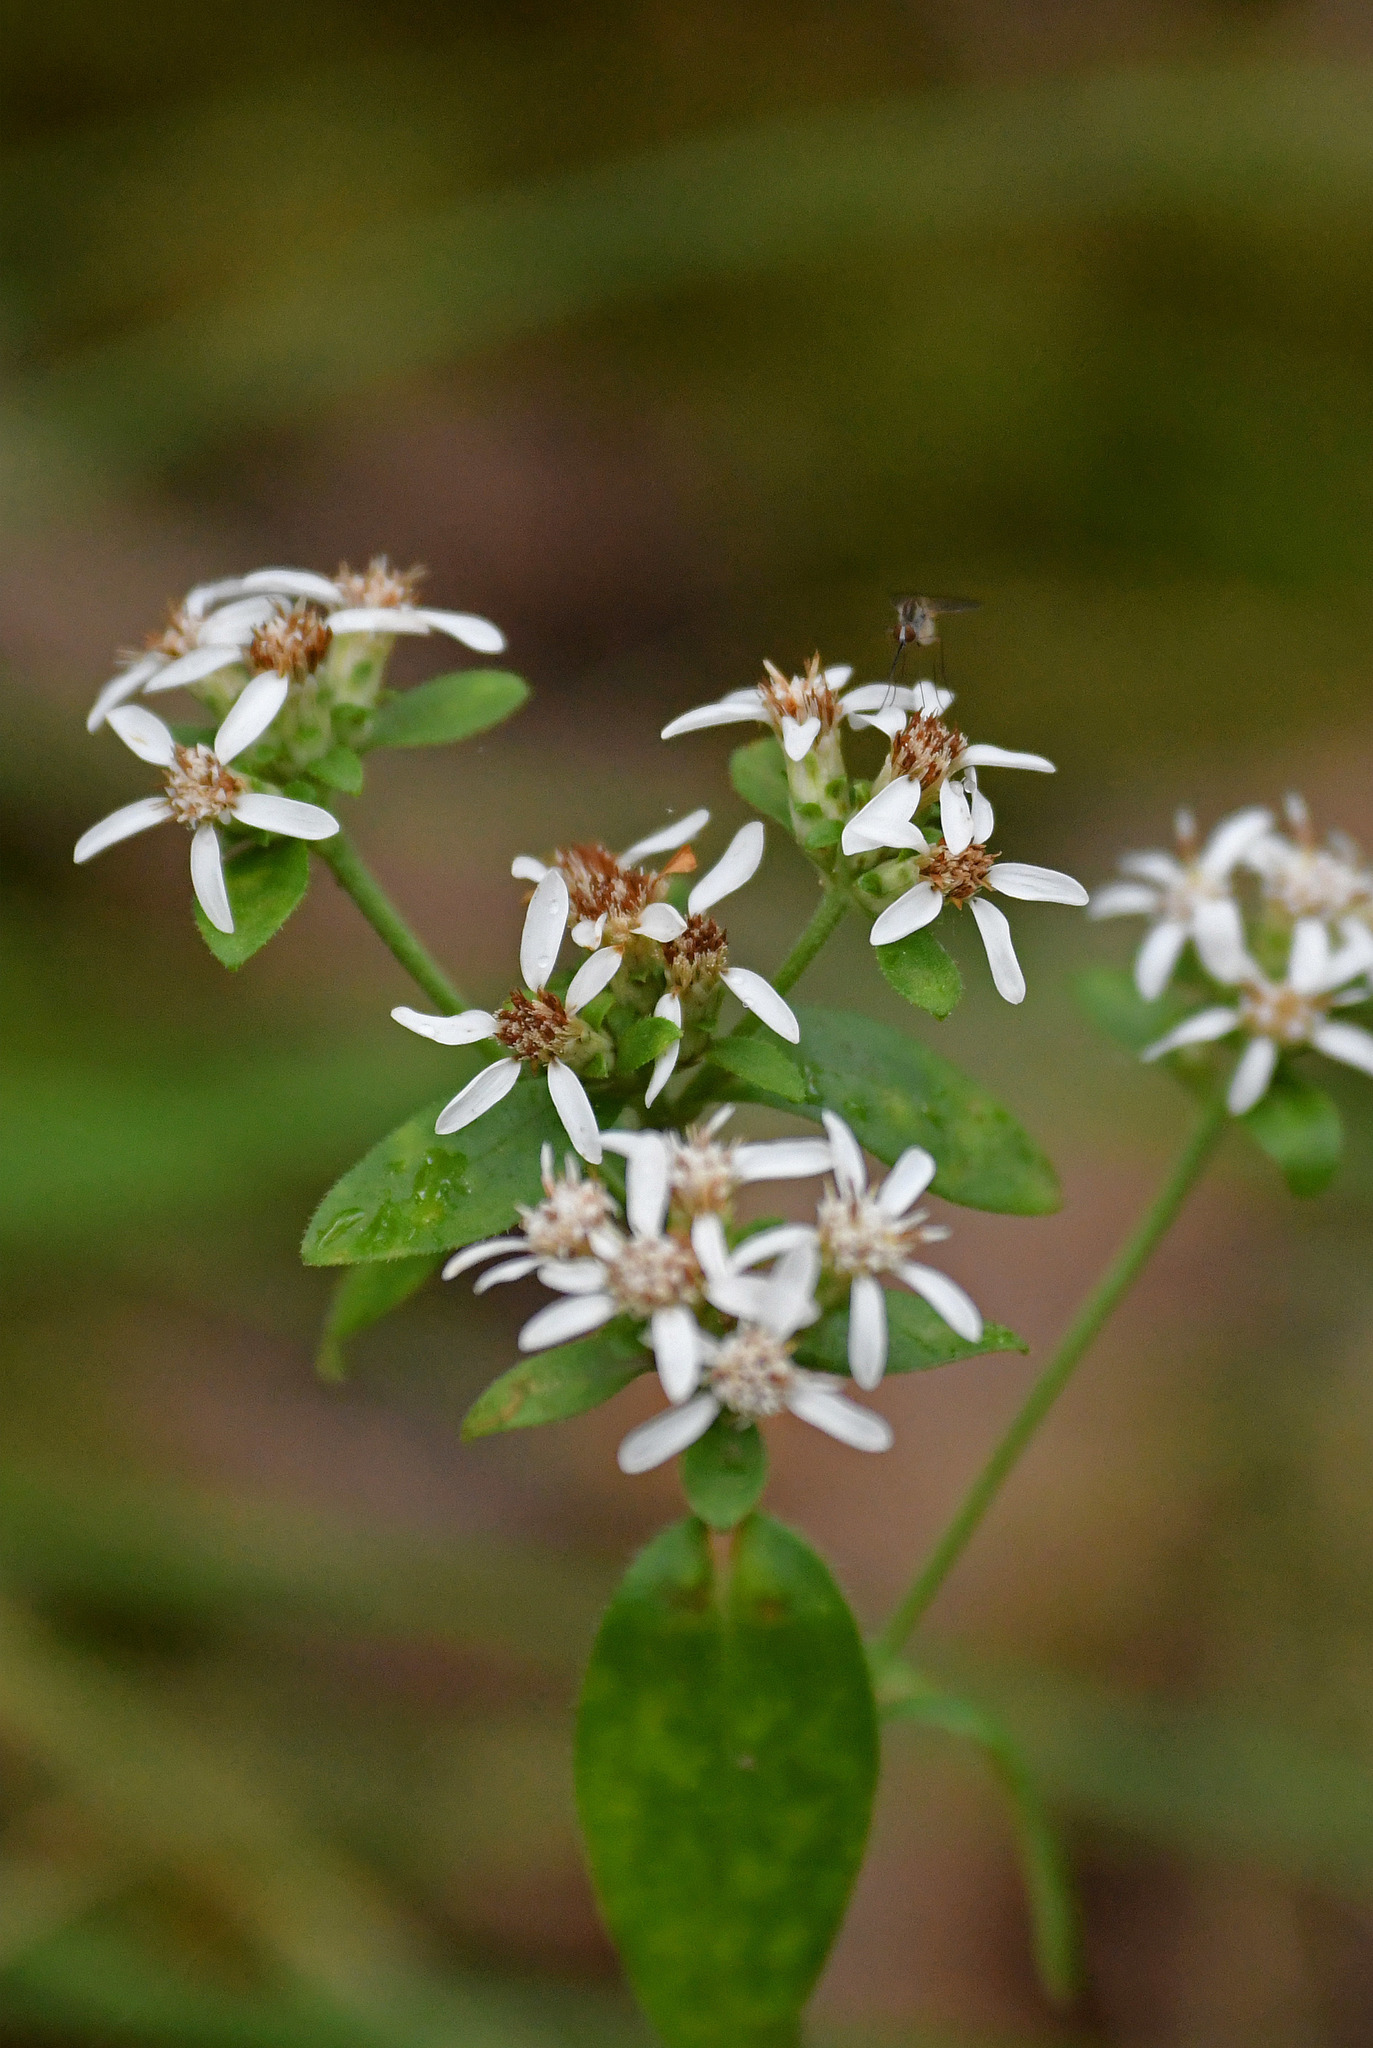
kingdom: Plantae
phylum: Tracheophyta
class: Magnoliopsida
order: Asterales
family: Asteraceae
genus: Sericocarpus
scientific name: Sericocarpus asteroides
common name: Toothed white-top aster
